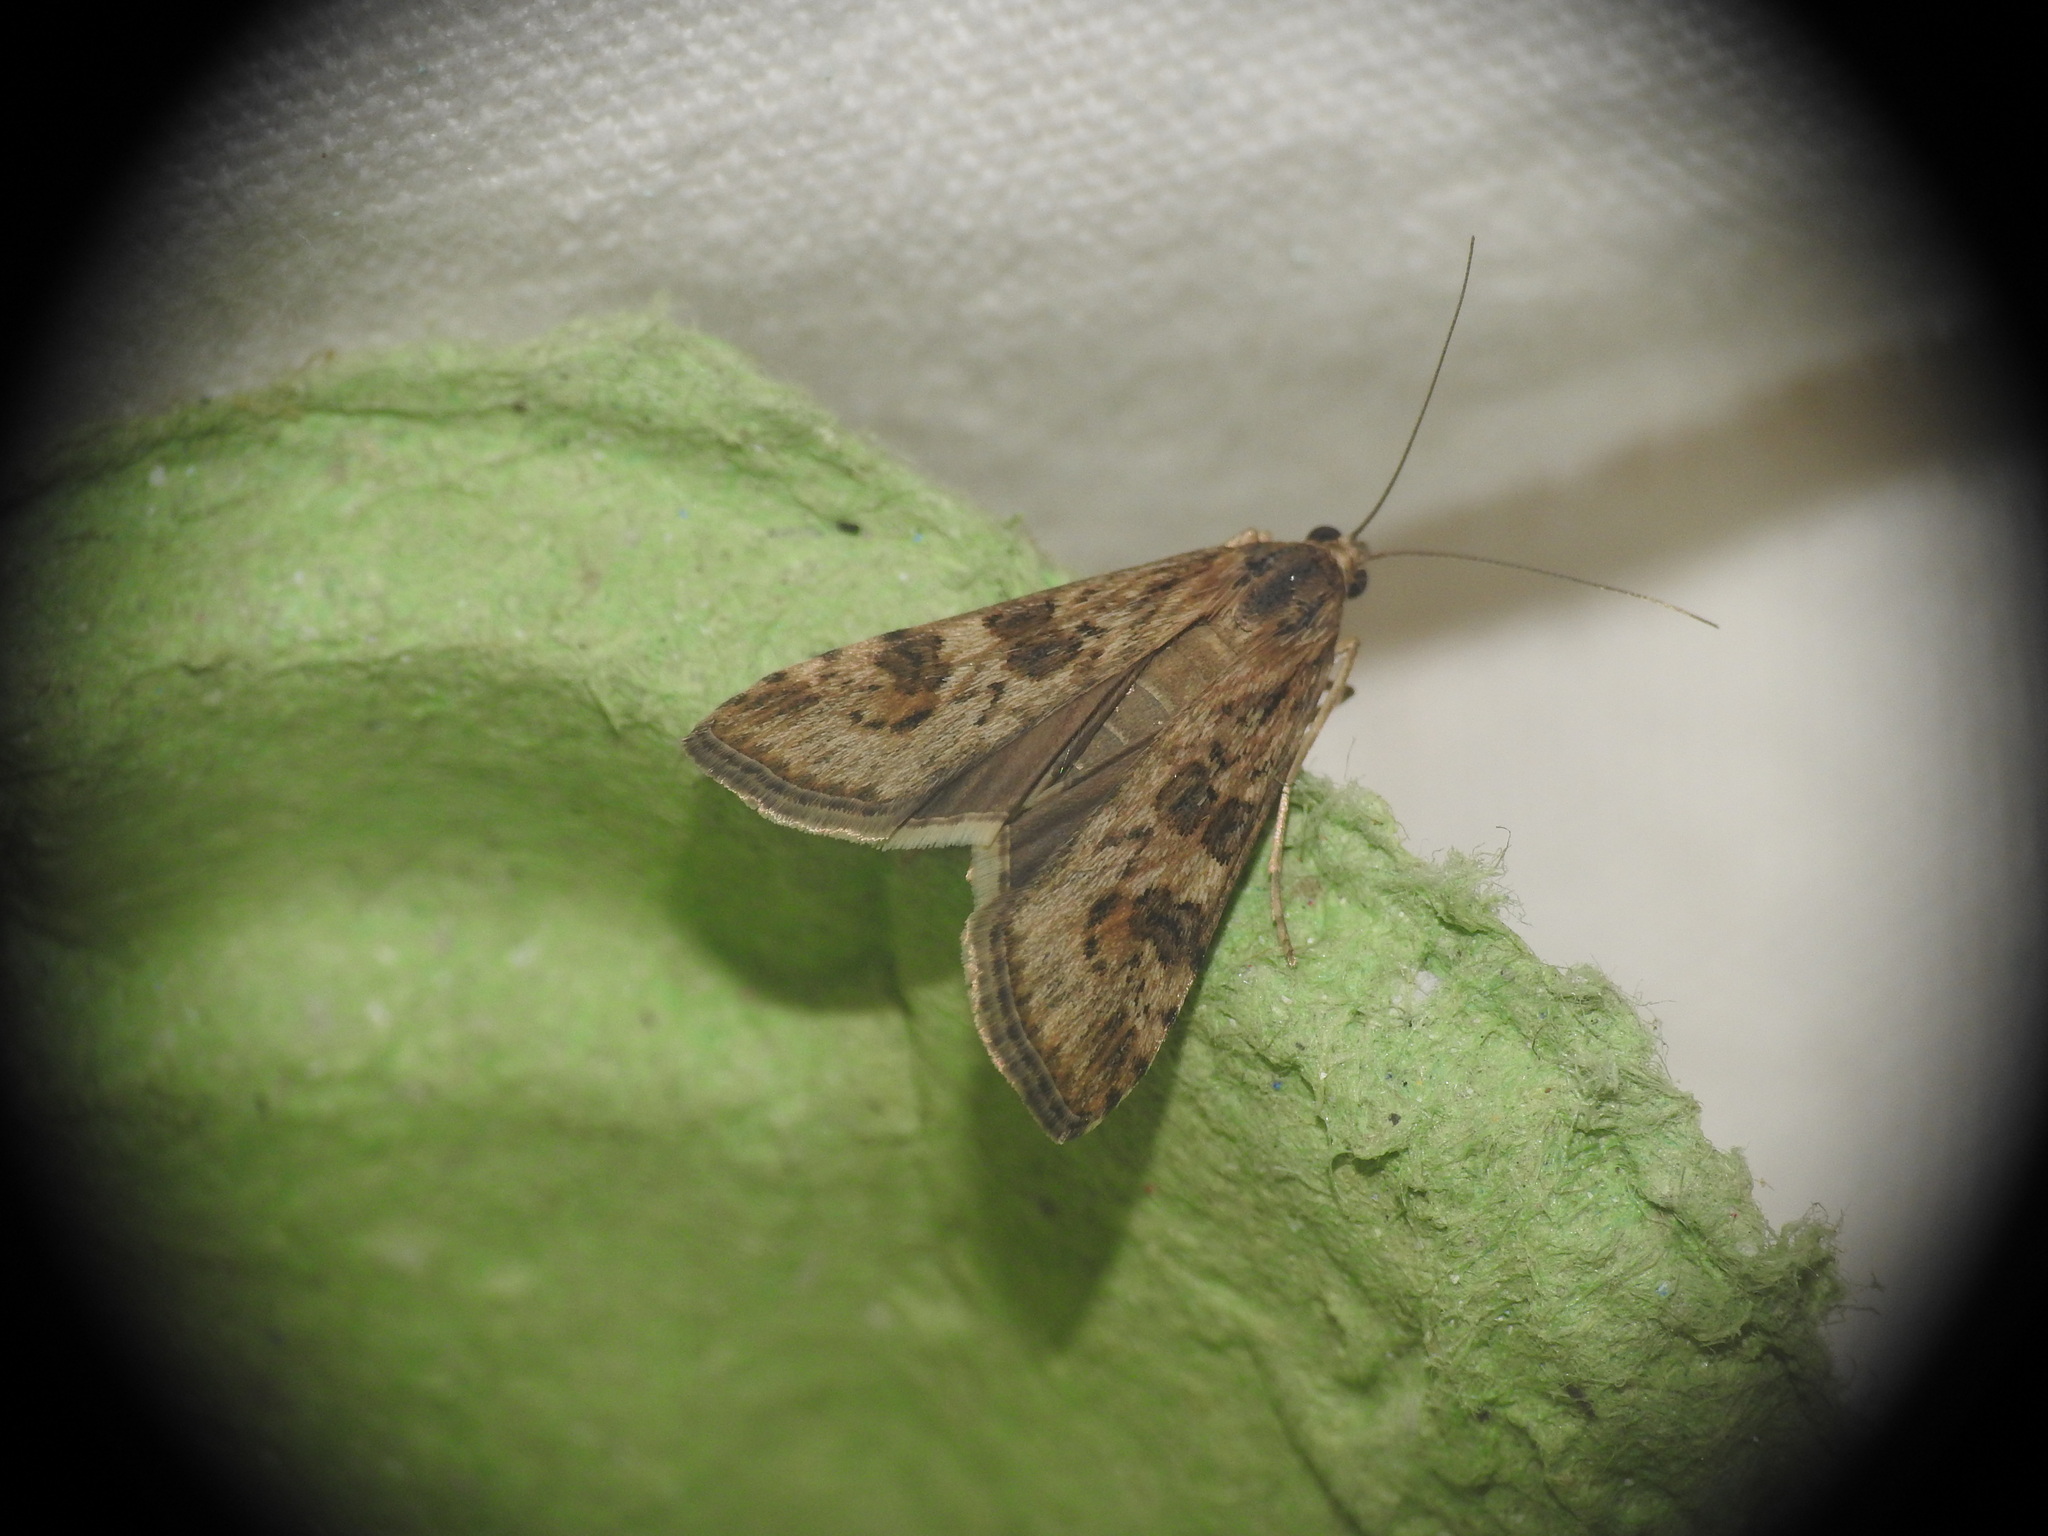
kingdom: Animalia
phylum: Arthropoda
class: Insecta
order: Lepidoptera
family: Crambidae
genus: Nomophila
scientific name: Nomophila noctuella
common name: Rush veneer
